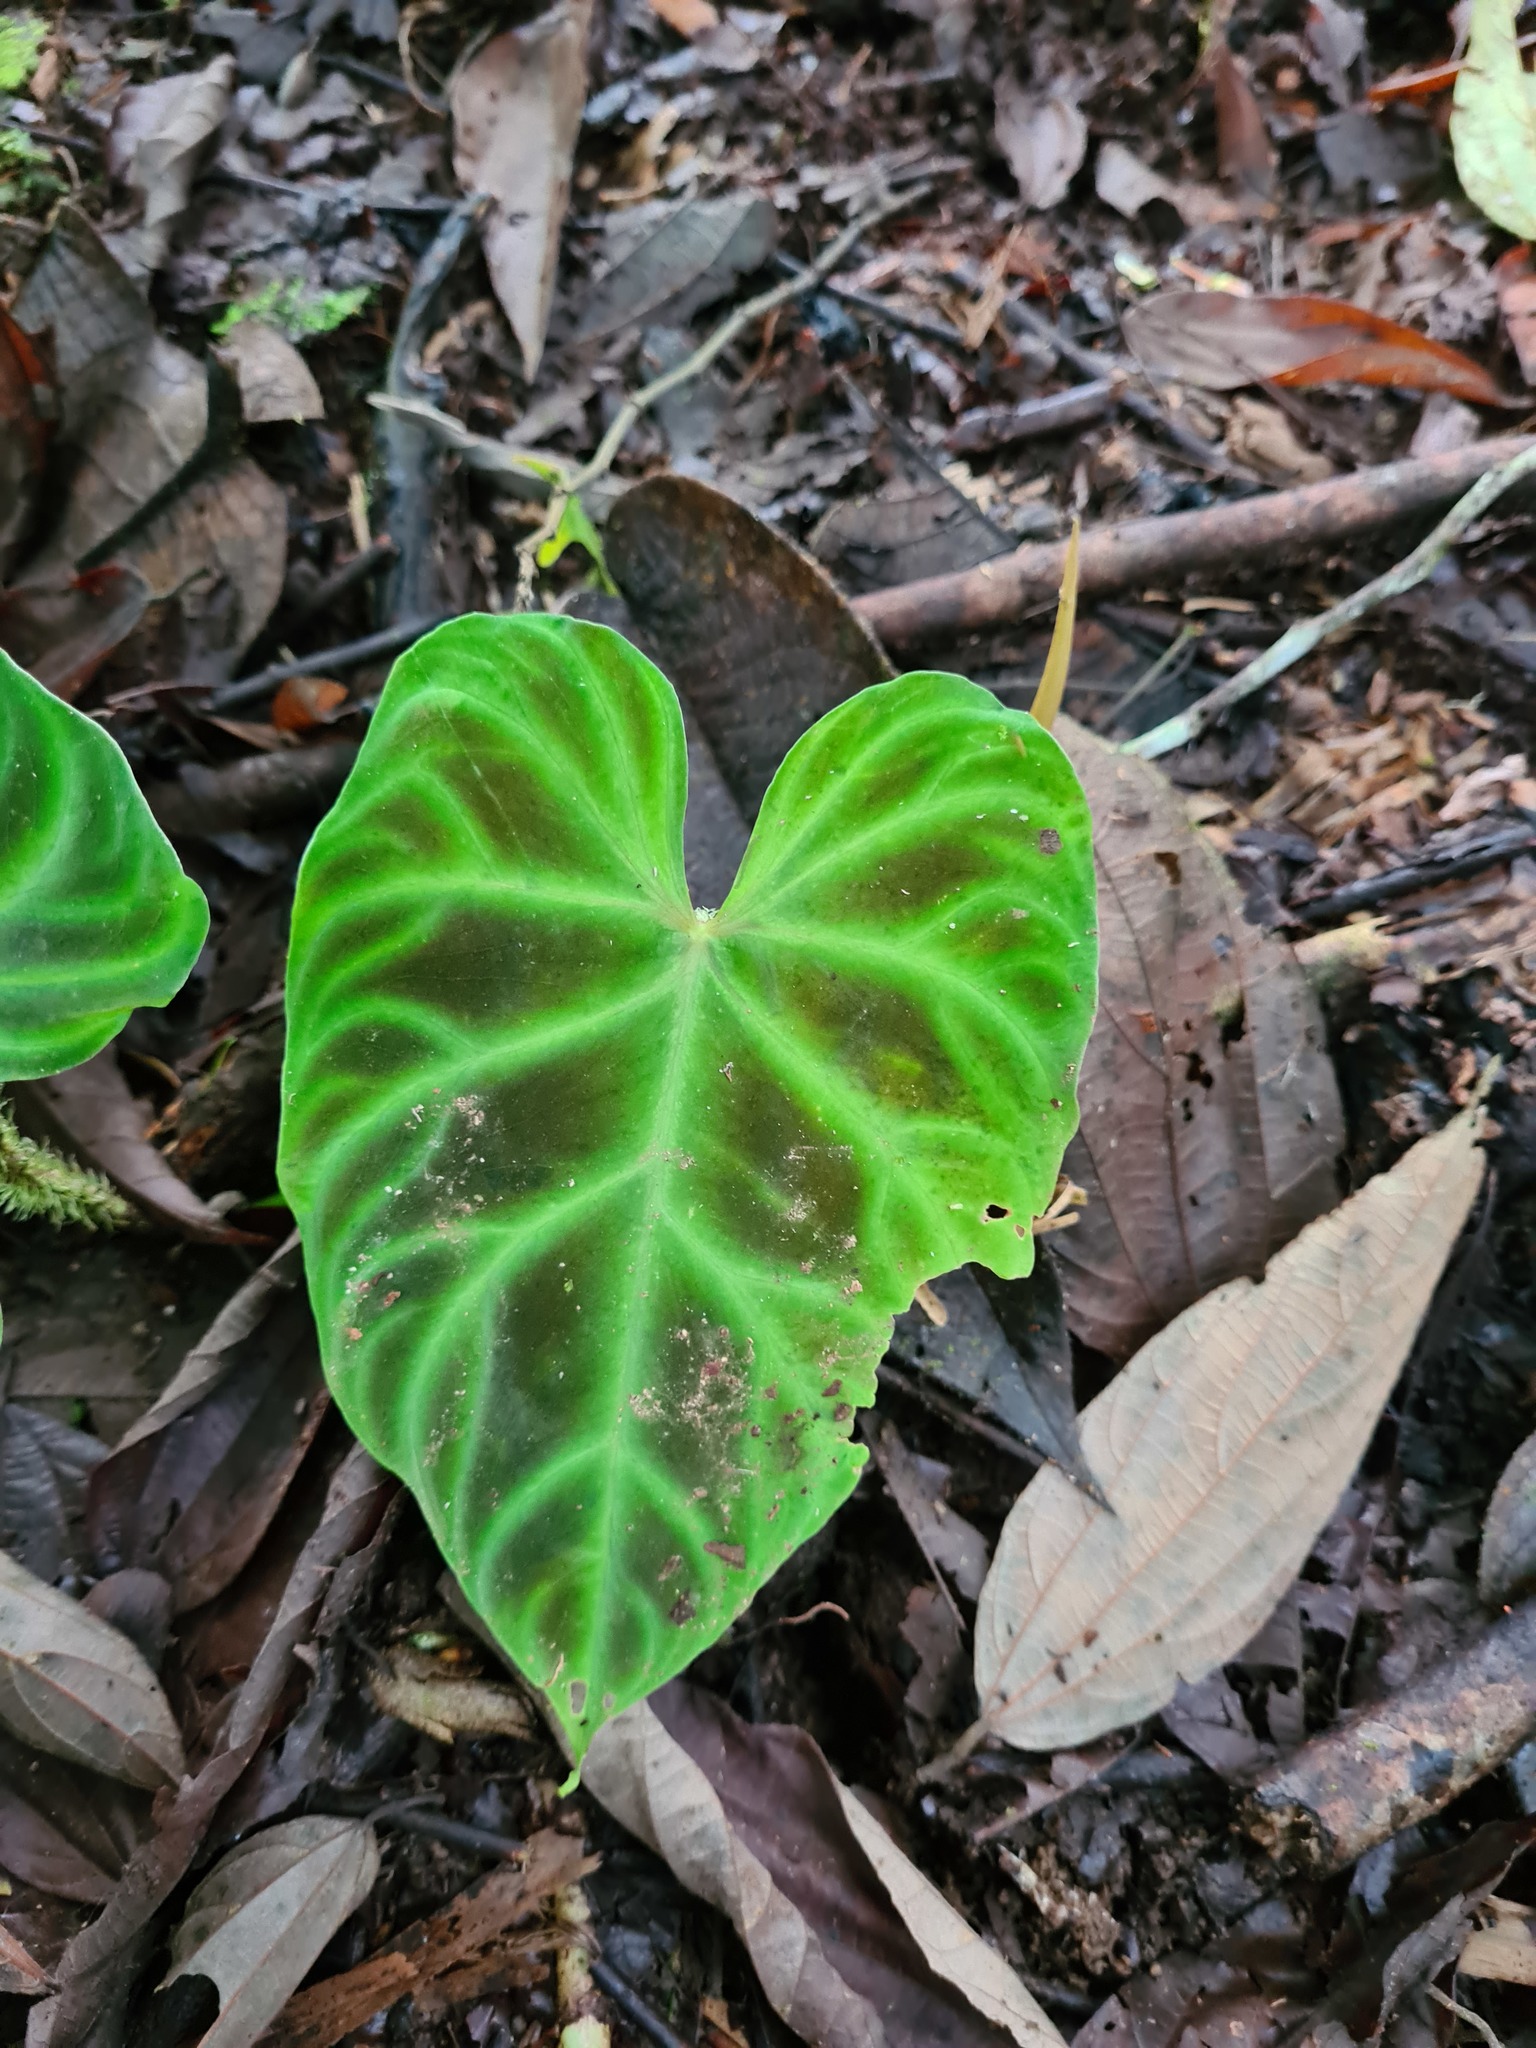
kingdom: Plantae
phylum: Tracheophyta
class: Liliopsida
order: Alismatales
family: Araceae
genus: Philodendron
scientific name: Philodendron verrucosum
